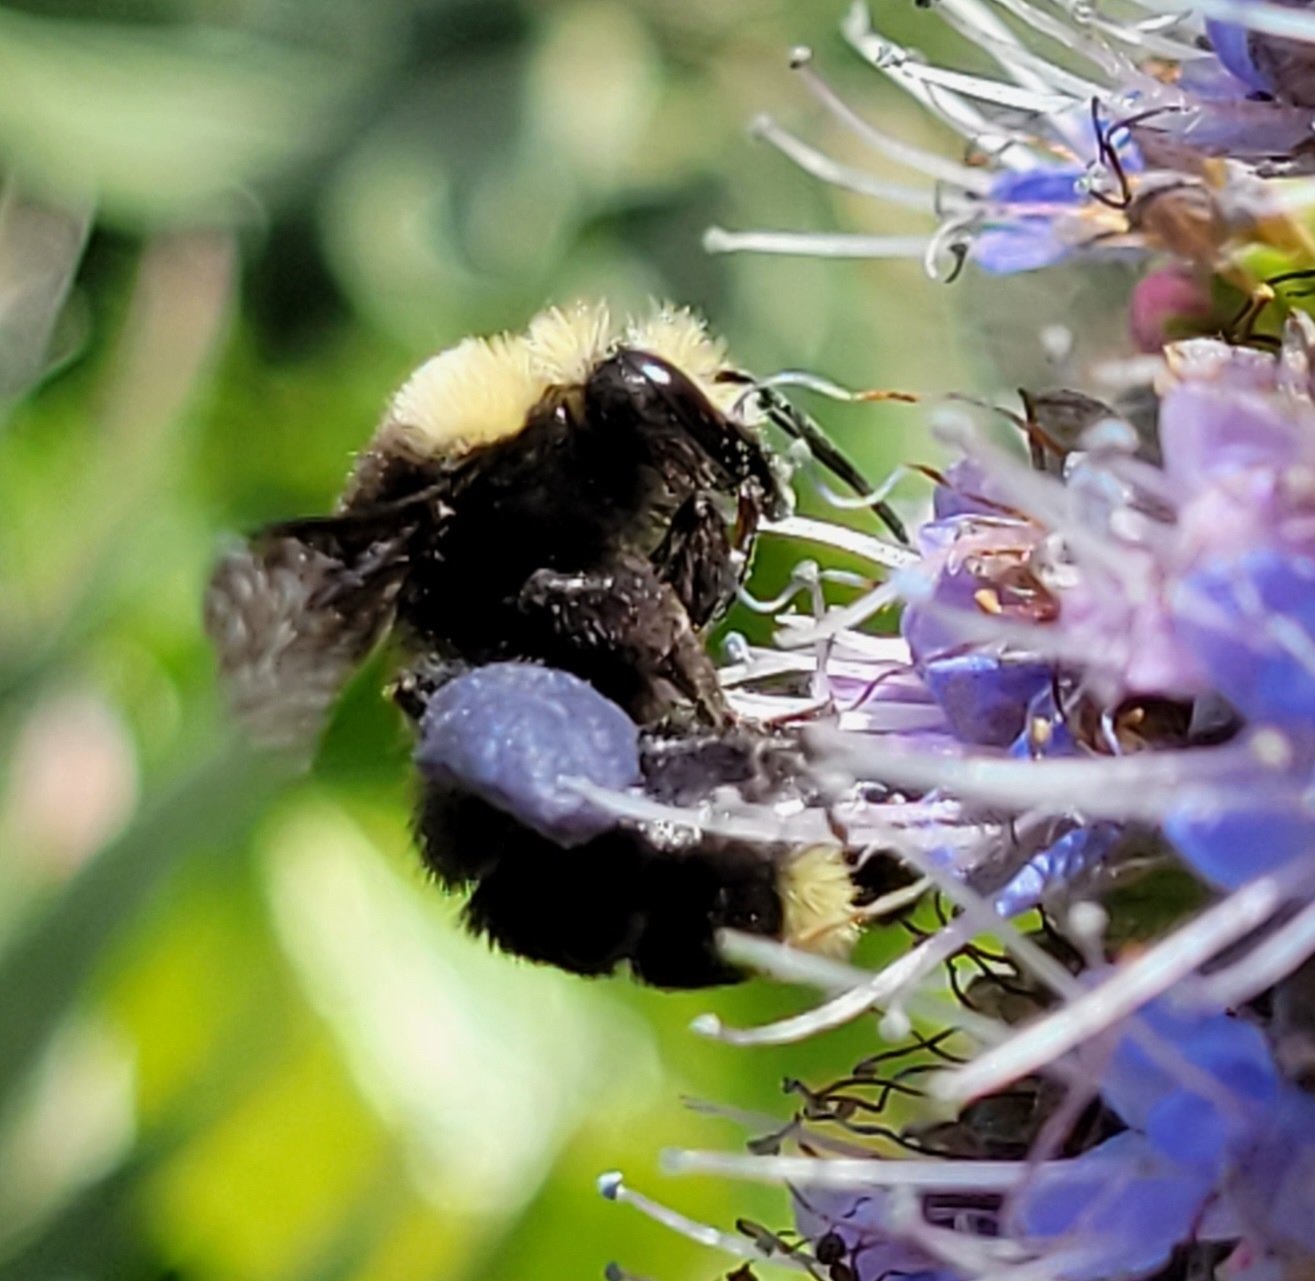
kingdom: Animalia
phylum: Arthropoda
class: Insecta
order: Hymenoptera
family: Apidae
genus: Bombus
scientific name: Bombus vosnesenskii
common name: Vosnesensky bumble bee
